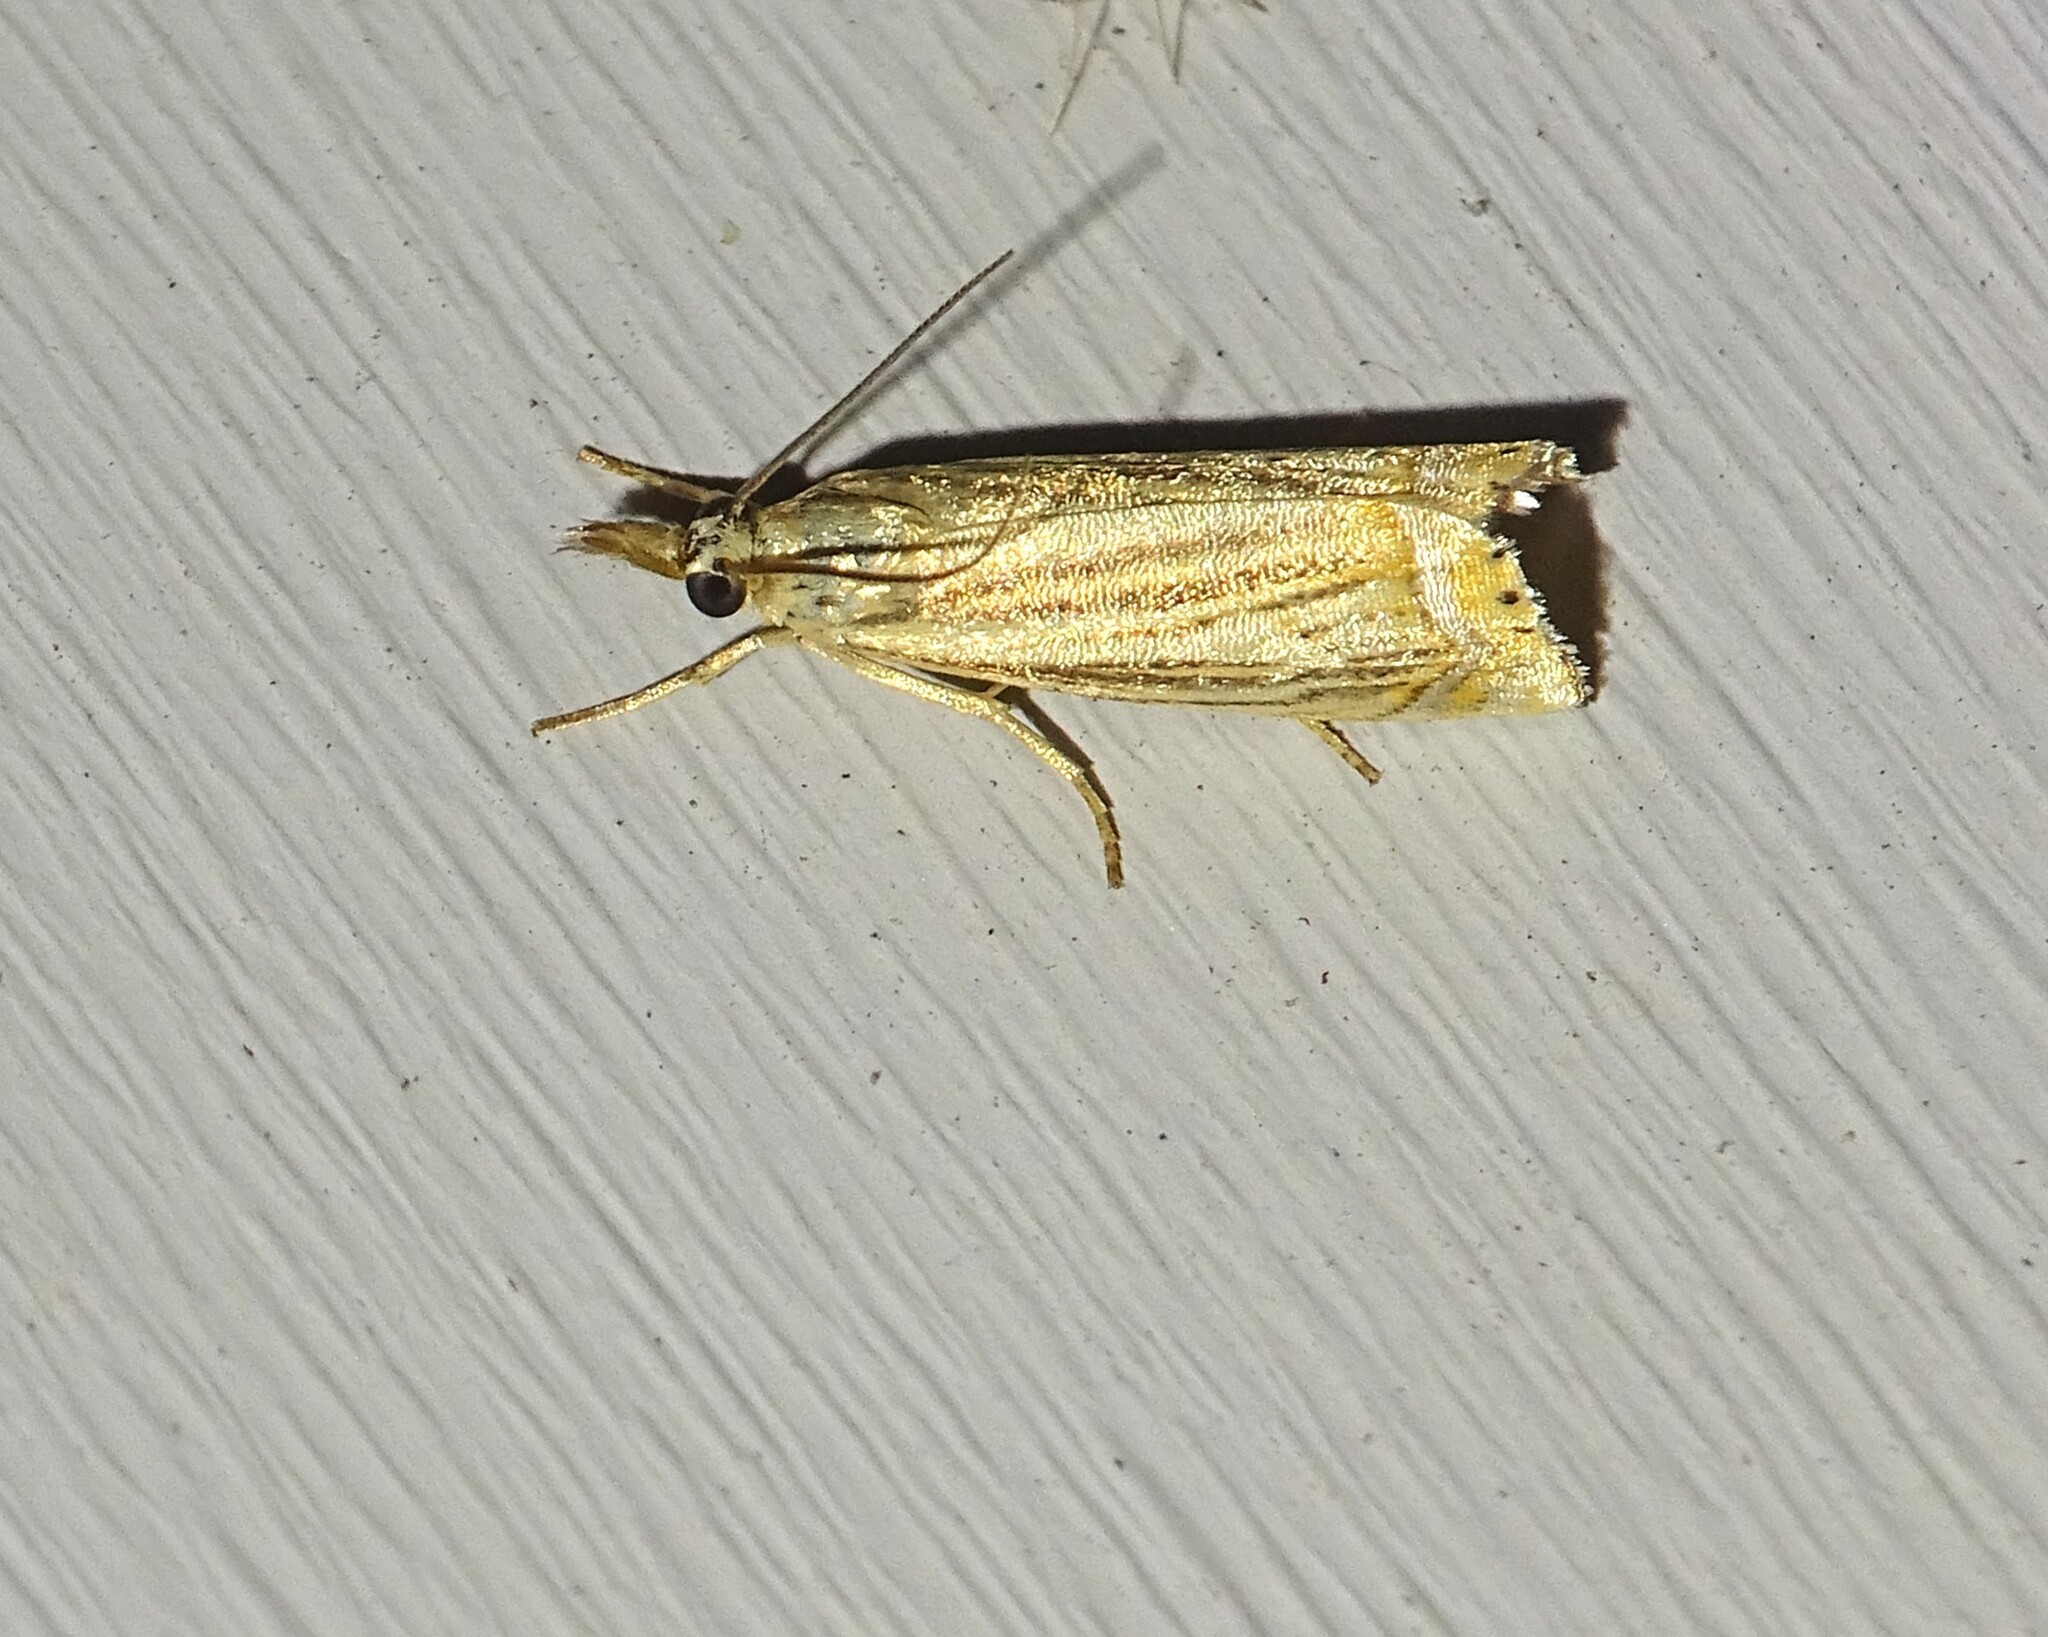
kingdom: Animalia
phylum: Arthropoda
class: Insecta
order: Lepidoptera
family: Crambidae
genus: Chrysoteuchia
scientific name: Chrysoteuchia topiarius
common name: Topiary grass-veneer
